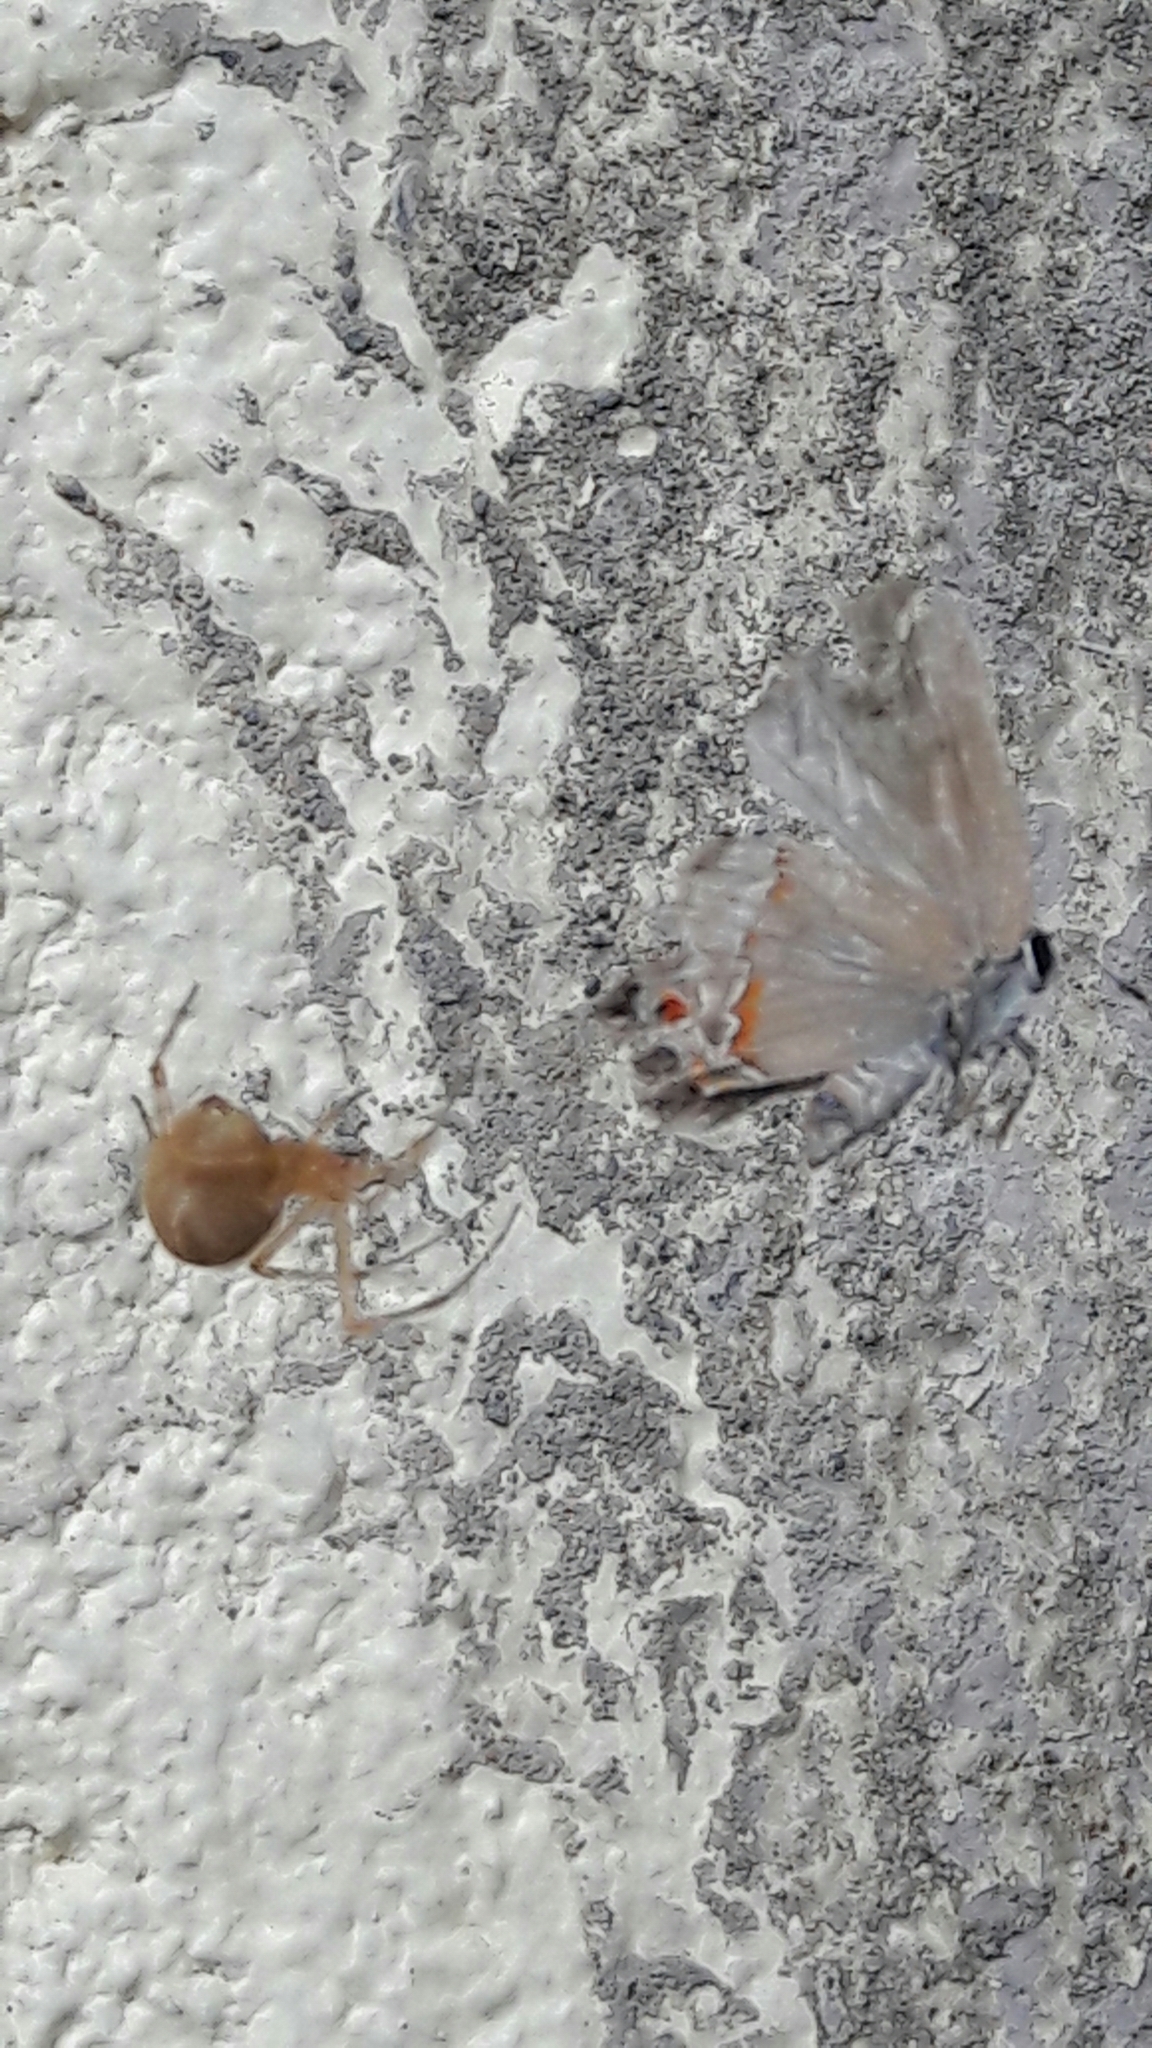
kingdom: Animalia
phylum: Arthropoda
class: Insecta
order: Lepidoptera
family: Lycaenidae
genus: Thecla
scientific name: Thecla syllis
